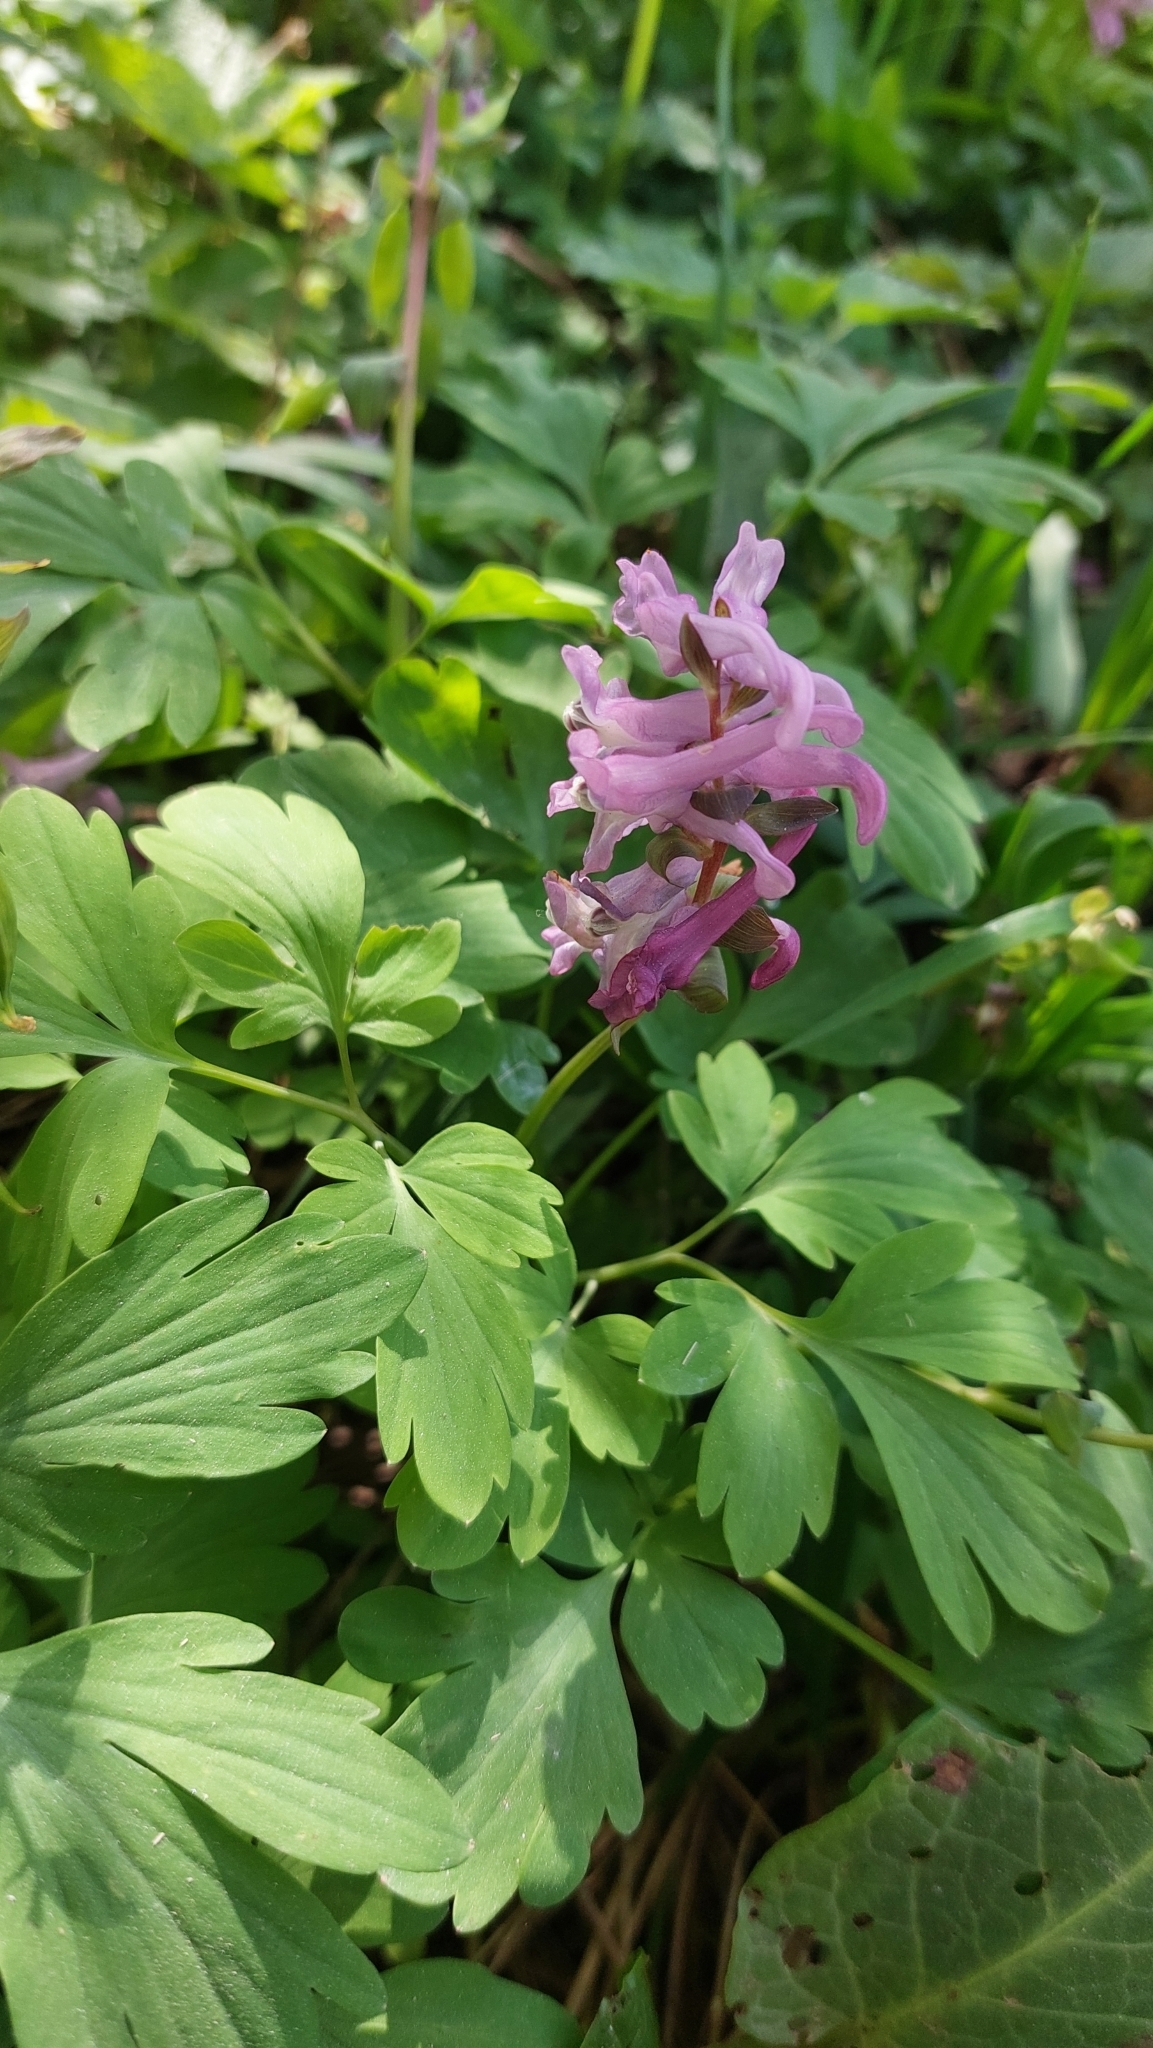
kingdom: Plantae
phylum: Tracheophyta
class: Magnoliopsida
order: Ranunculales
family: Papaveraceae
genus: Corydalis
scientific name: Corydalis cava
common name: Hollowroot
